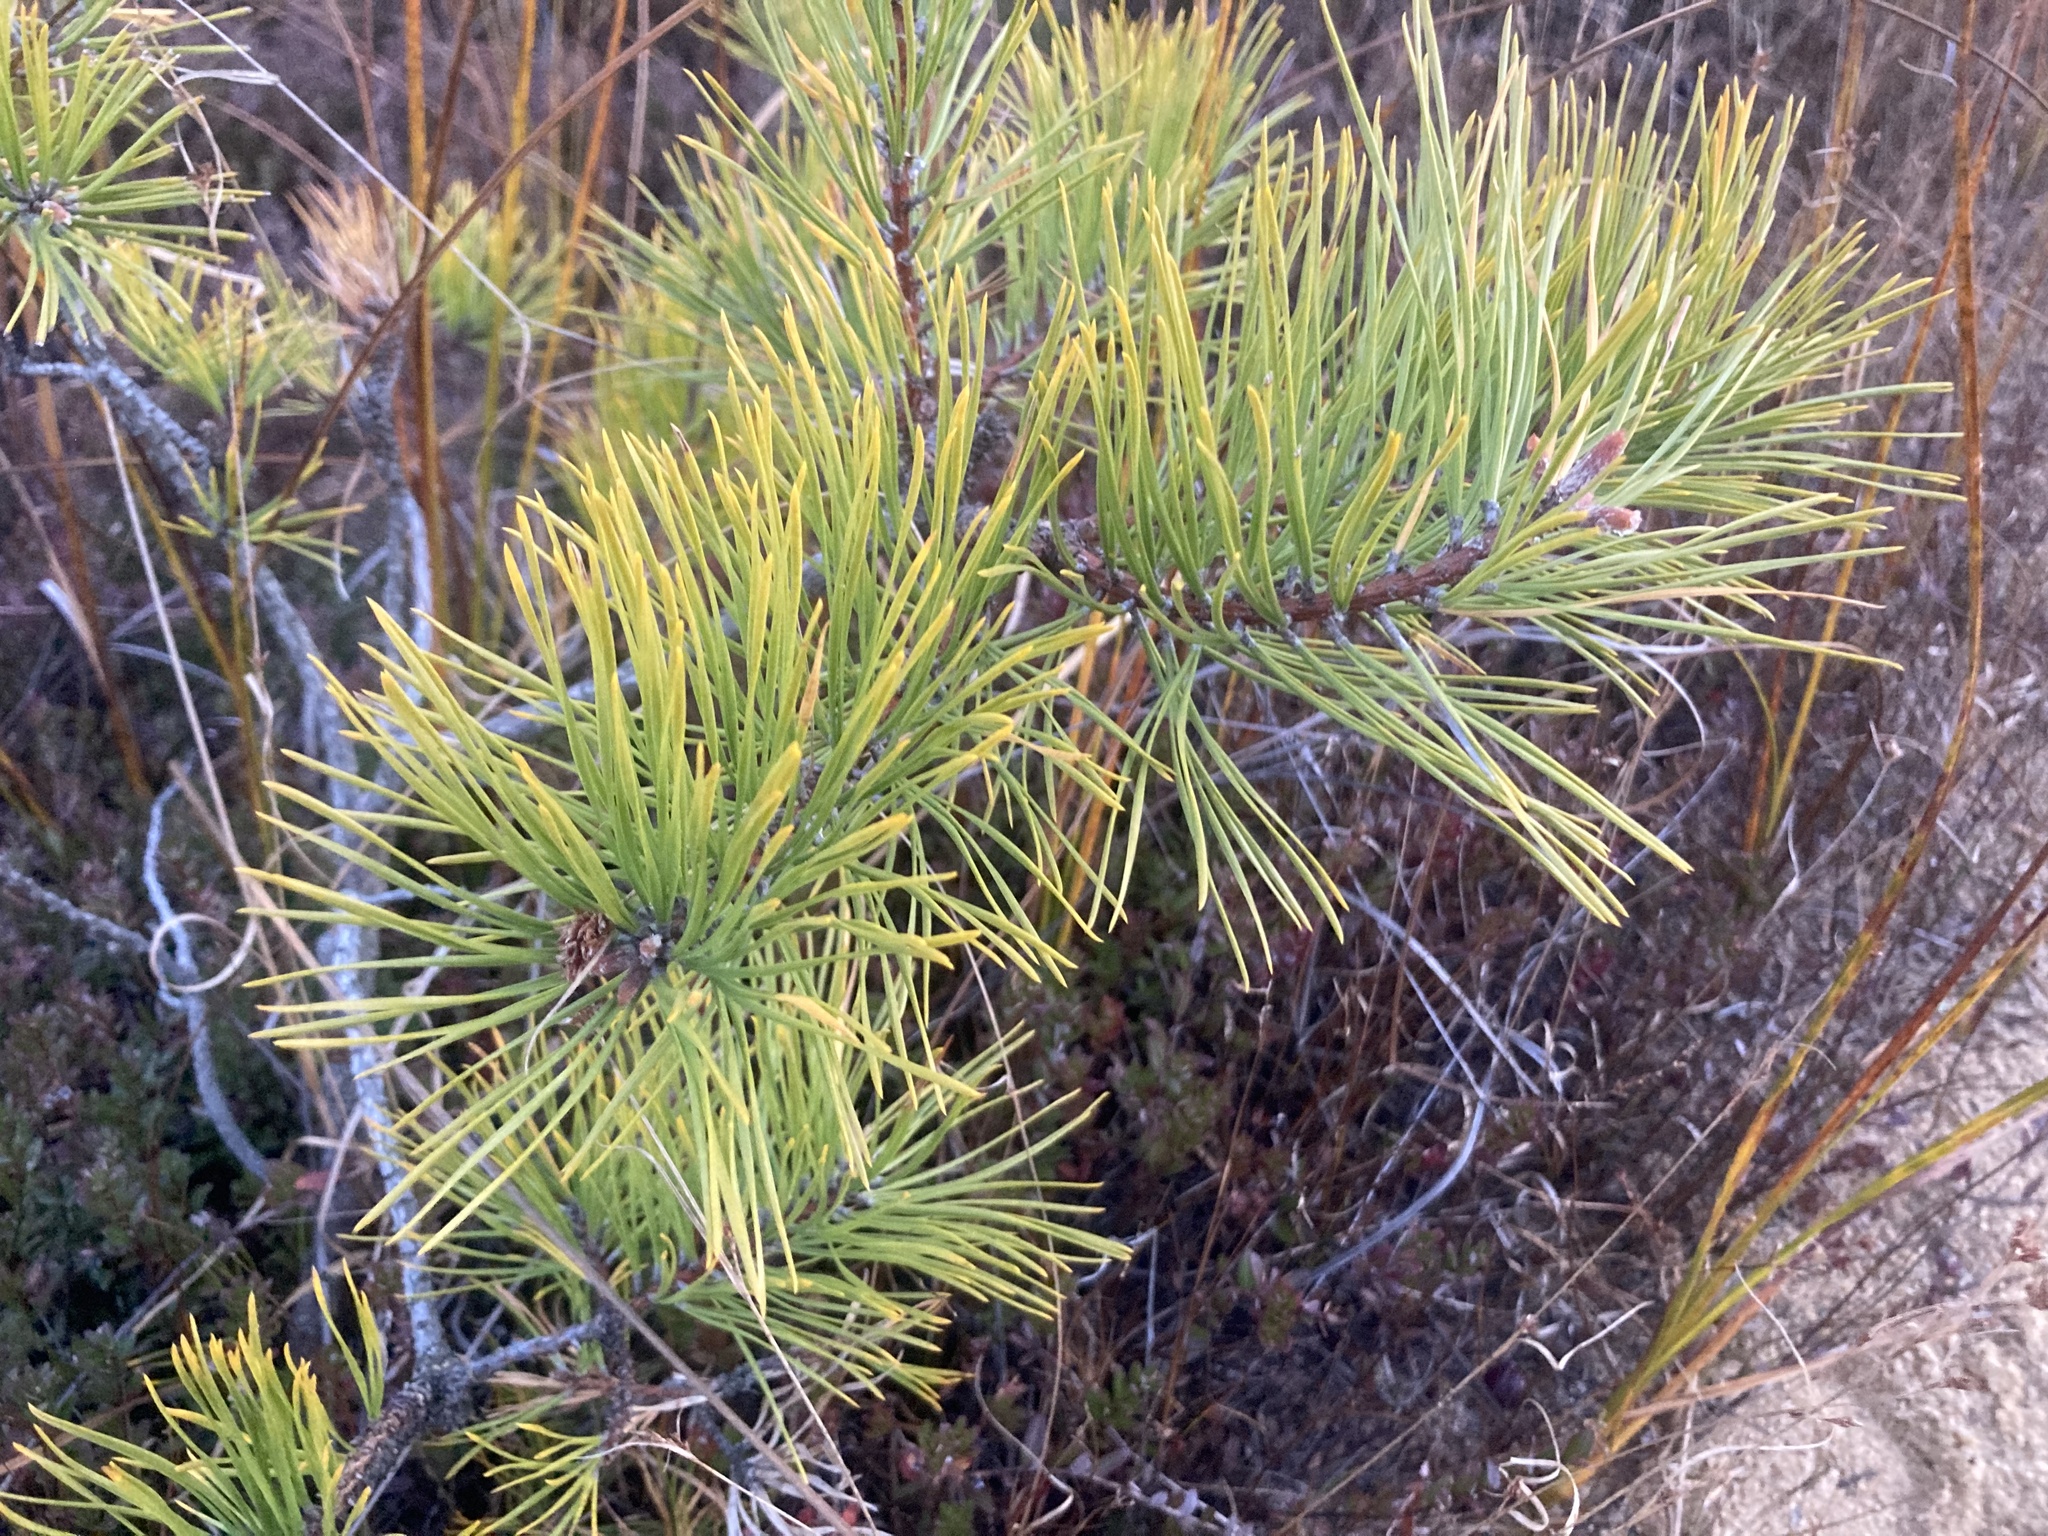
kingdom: Plantae
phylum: Tracheophyta
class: Pinopsida
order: Pinales
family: Pinaceae
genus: Pinus
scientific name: Pinus rigida
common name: Pitch pine
